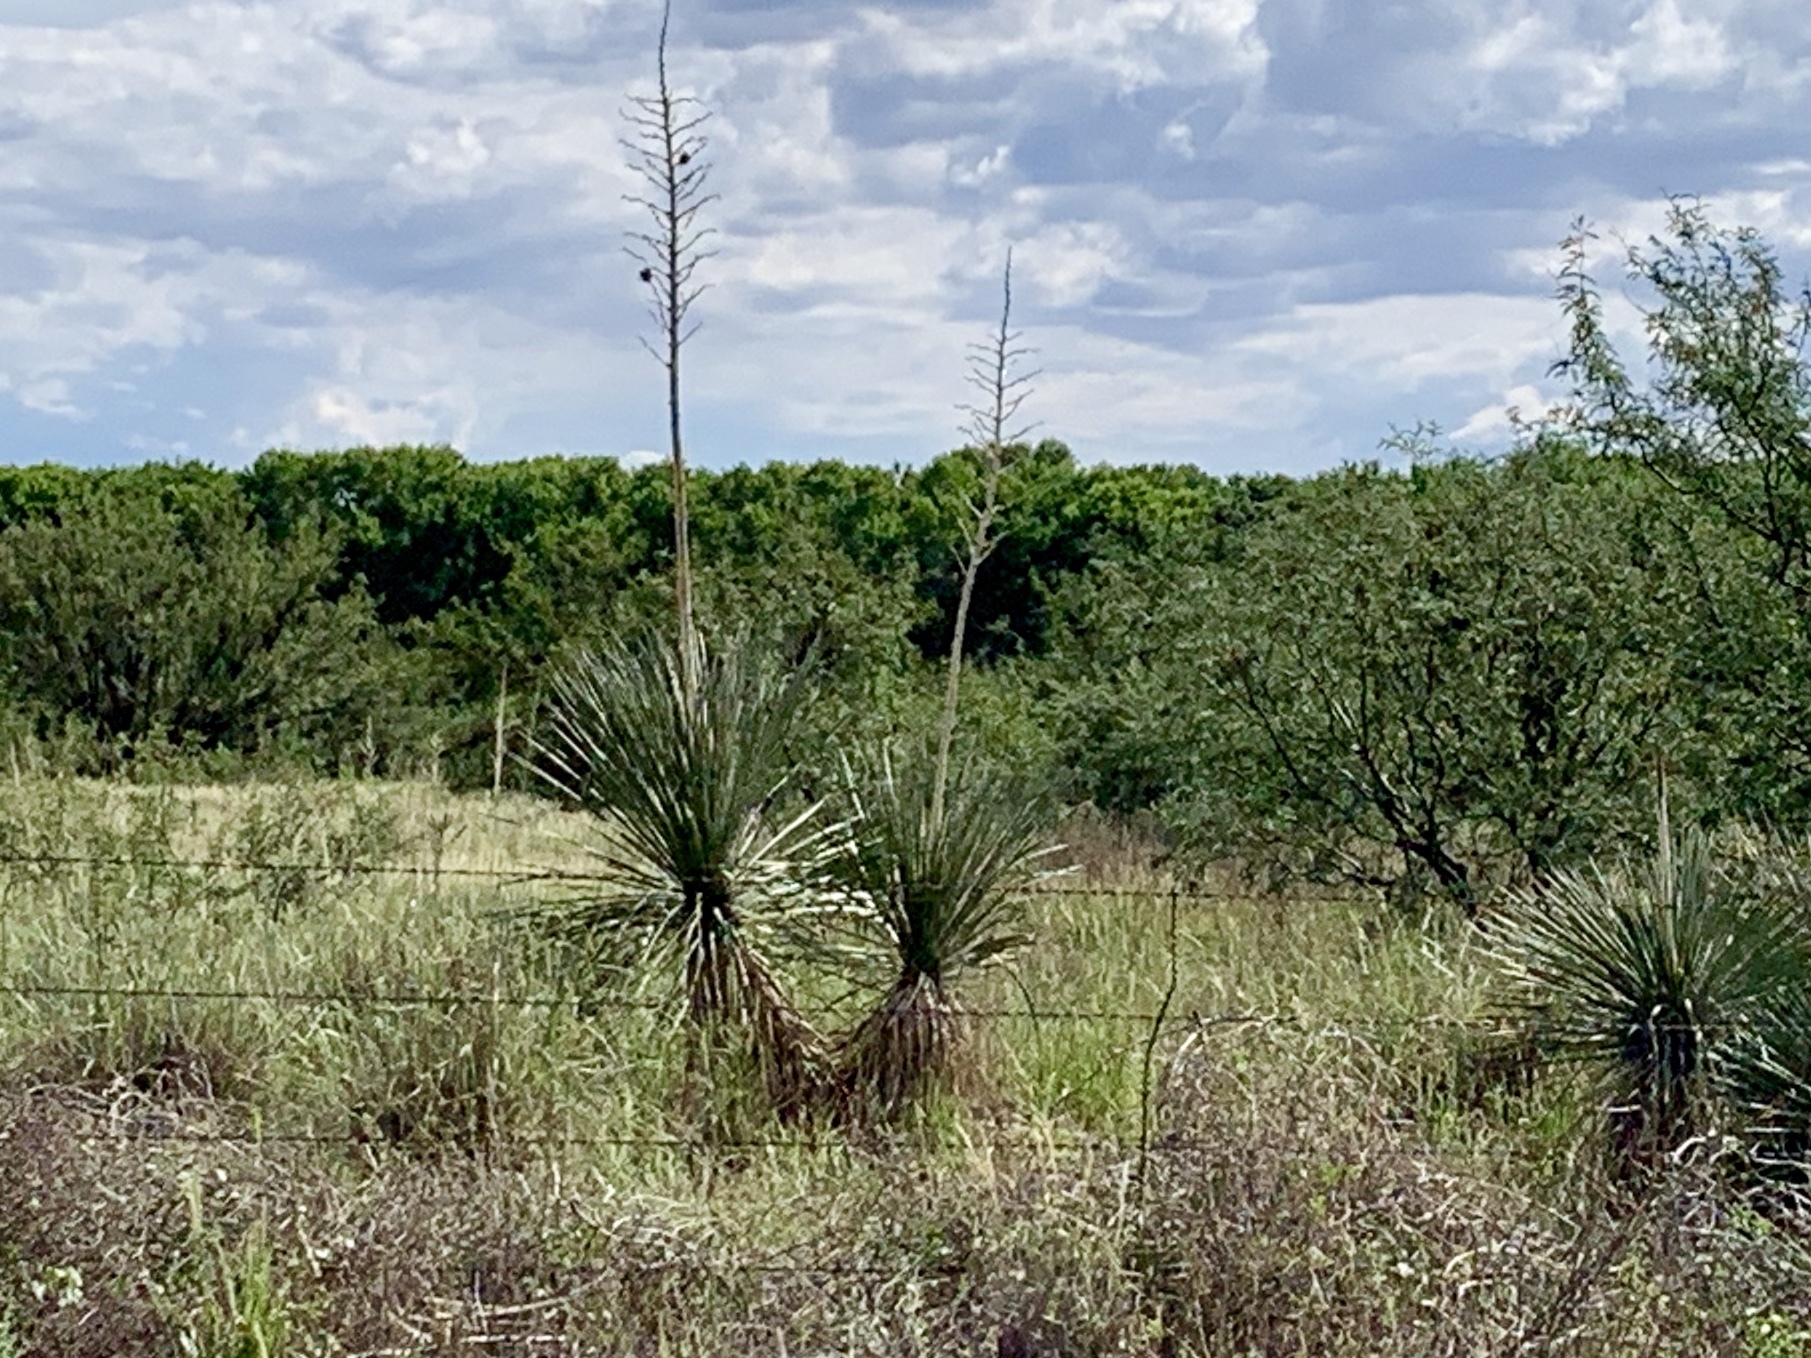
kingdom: Plantae
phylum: Tracheophyta
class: Liliopsida
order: Asparagales
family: Asparagaceae
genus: Yucca
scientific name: Yucca elata
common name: Palmella
